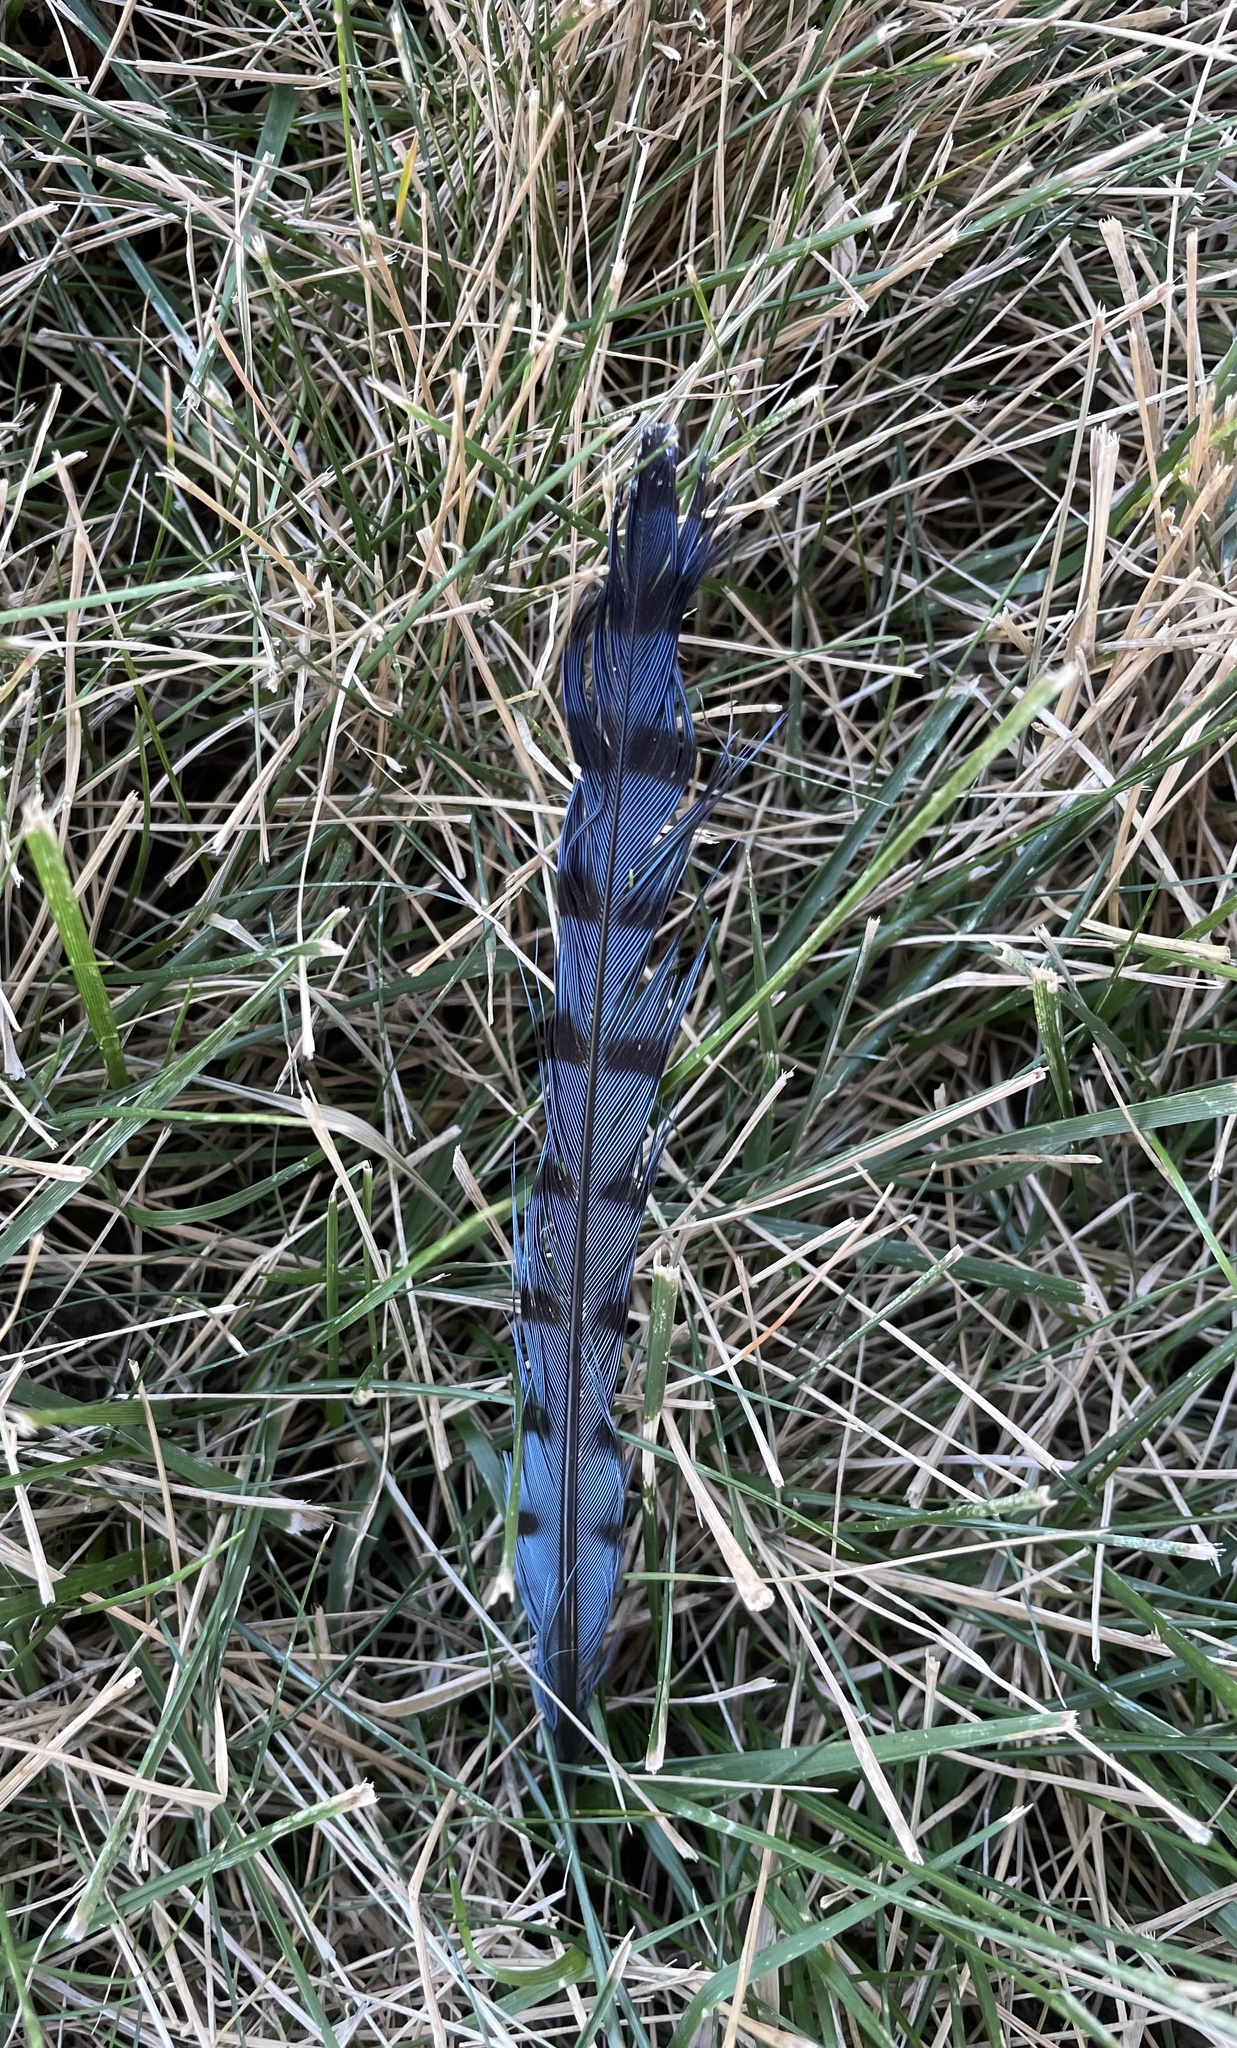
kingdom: Animalia
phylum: Chordata
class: Aves
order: Passeriformes
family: Corvidae
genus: Cyanocitta
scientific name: Cyanocitta cristata
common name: Blue jay
